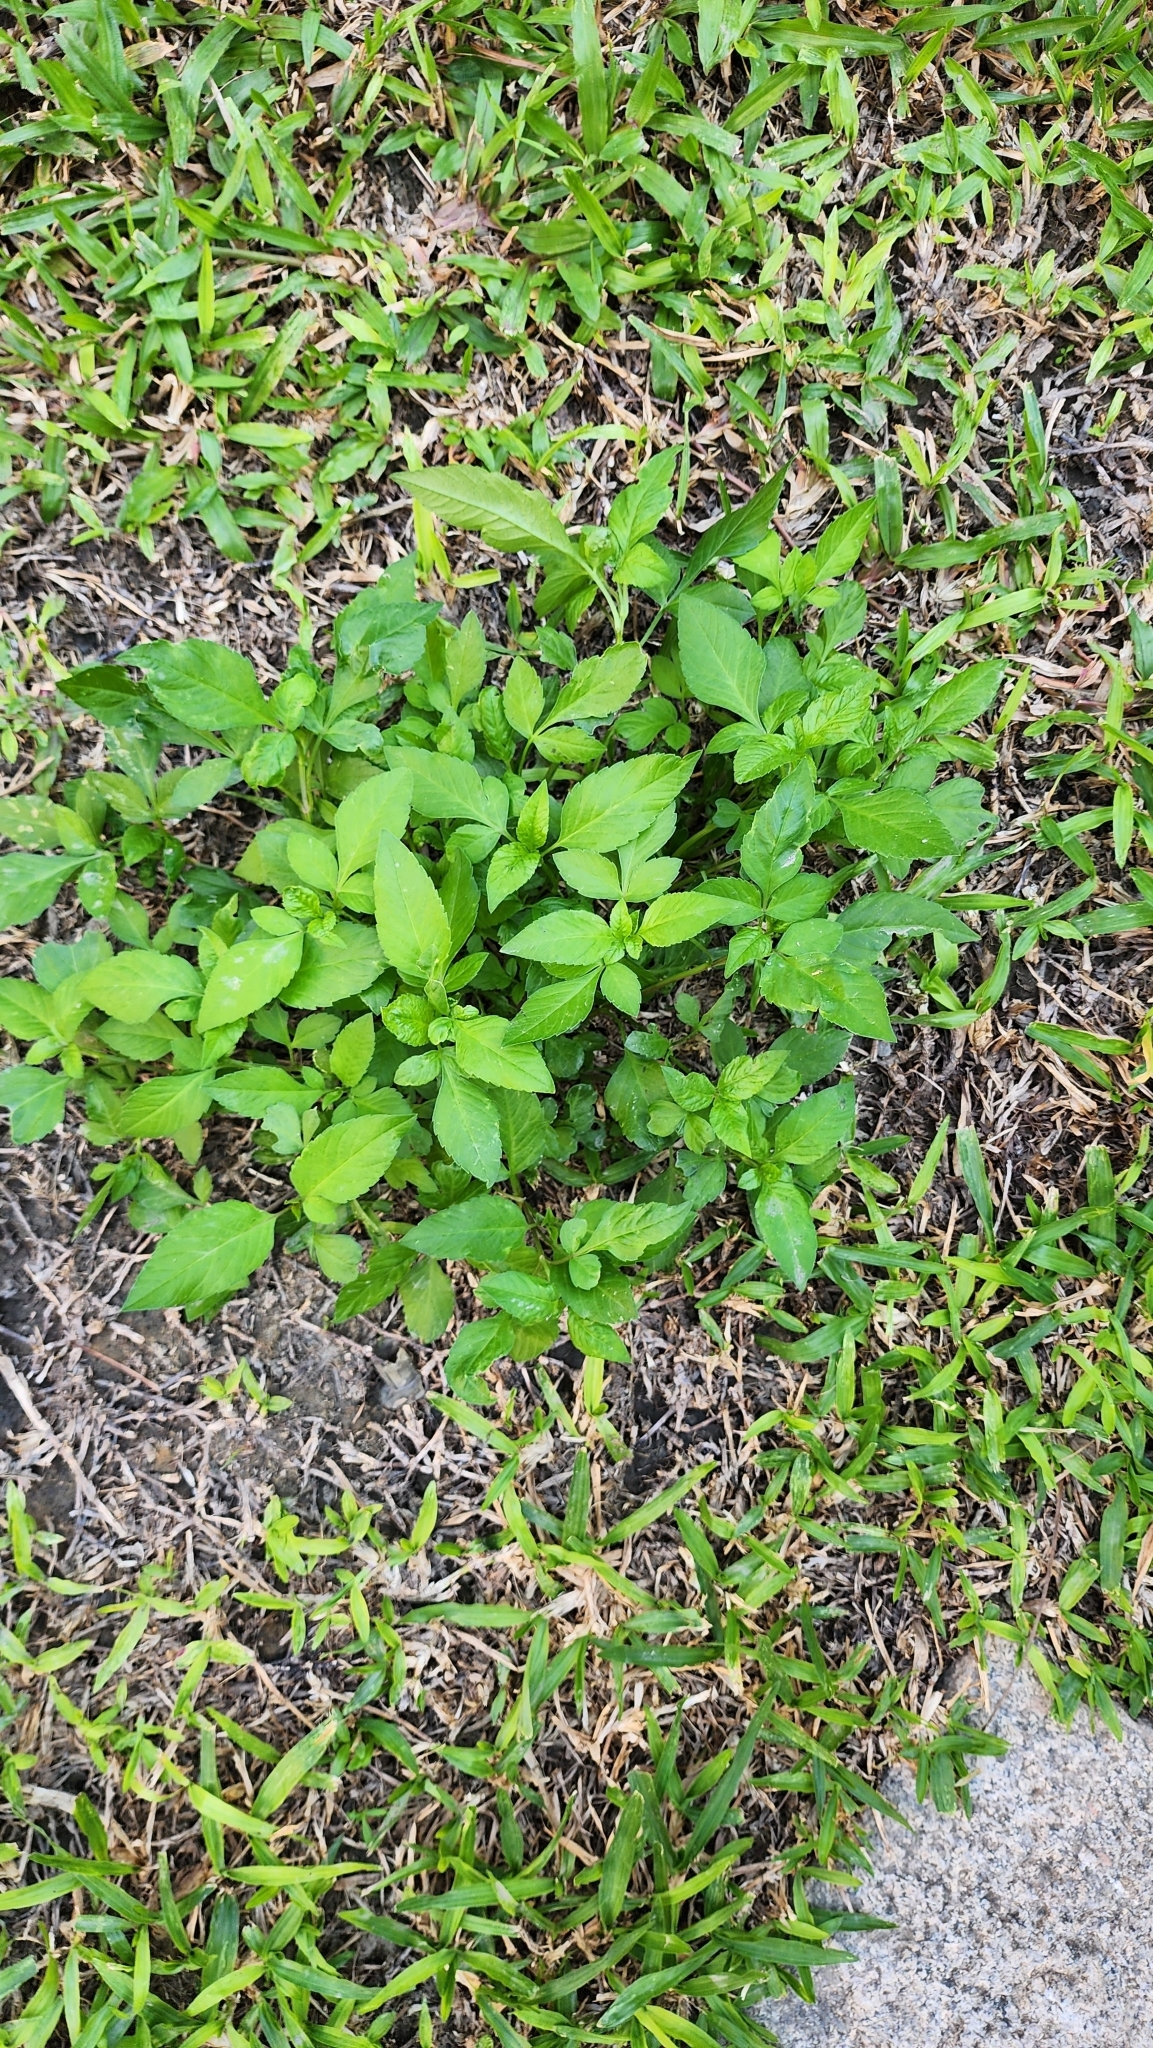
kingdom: Plantae
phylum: Tracheophyta
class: Magnoliopsida
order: Asterales
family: Asteraceae
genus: Bidens
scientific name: Bidens alba
